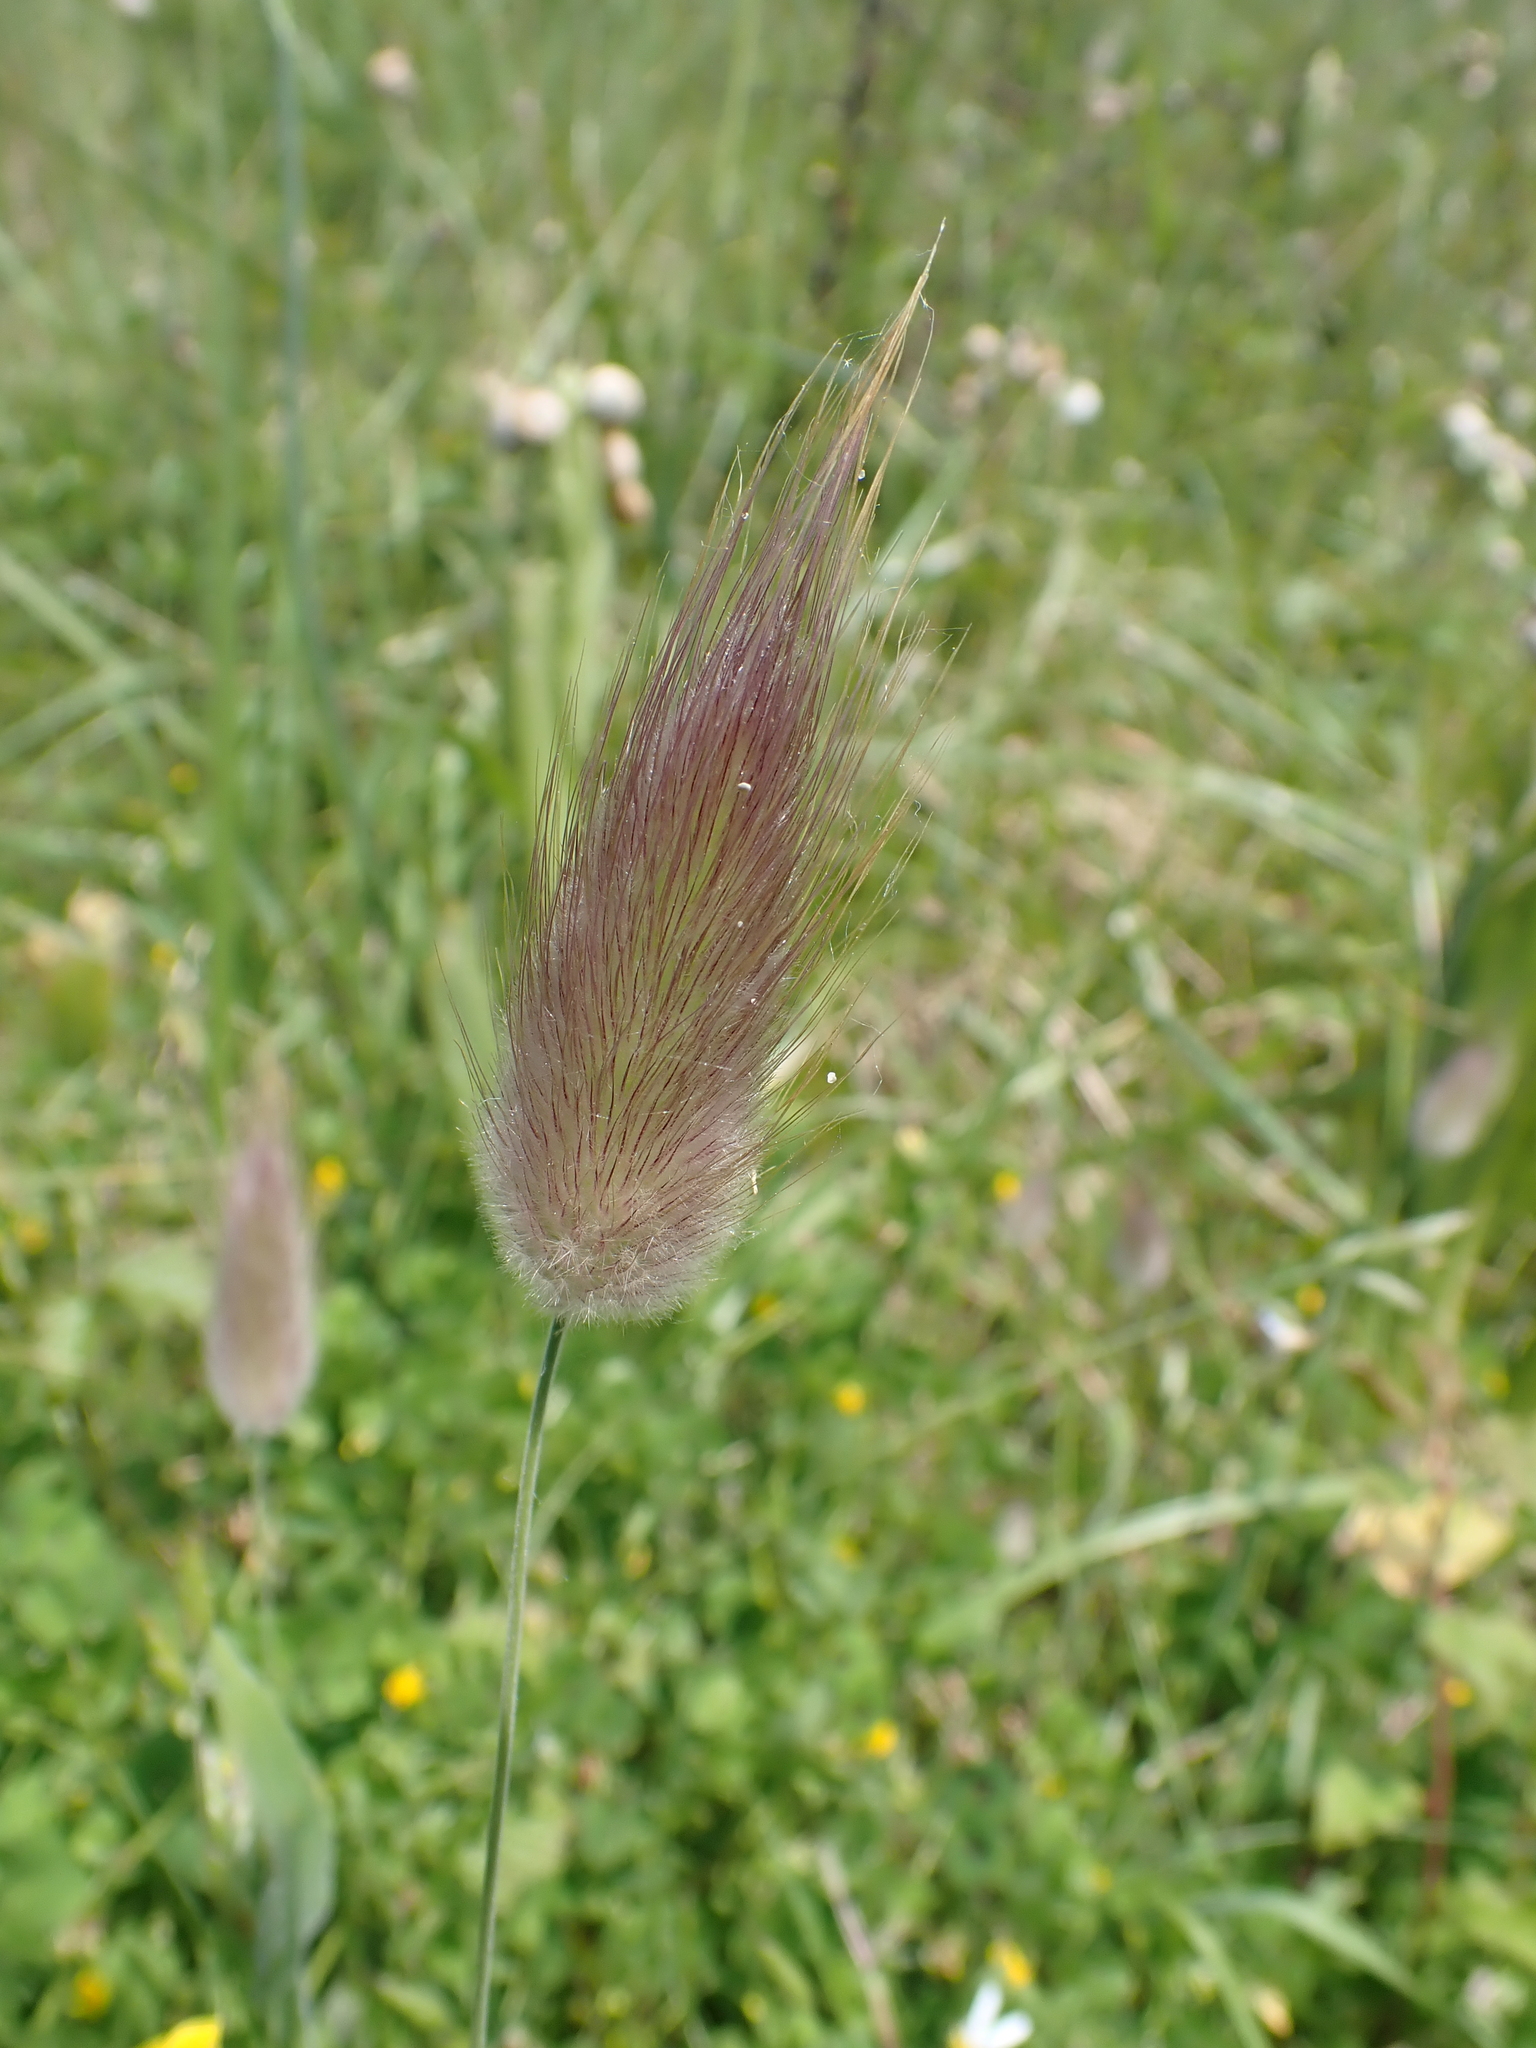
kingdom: Plantae
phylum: Tracheophyta
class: Liliopsida
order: Poales
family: Poaceae
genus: Lagurus
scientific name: Lagurus ovatus
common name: Hare's-tail
